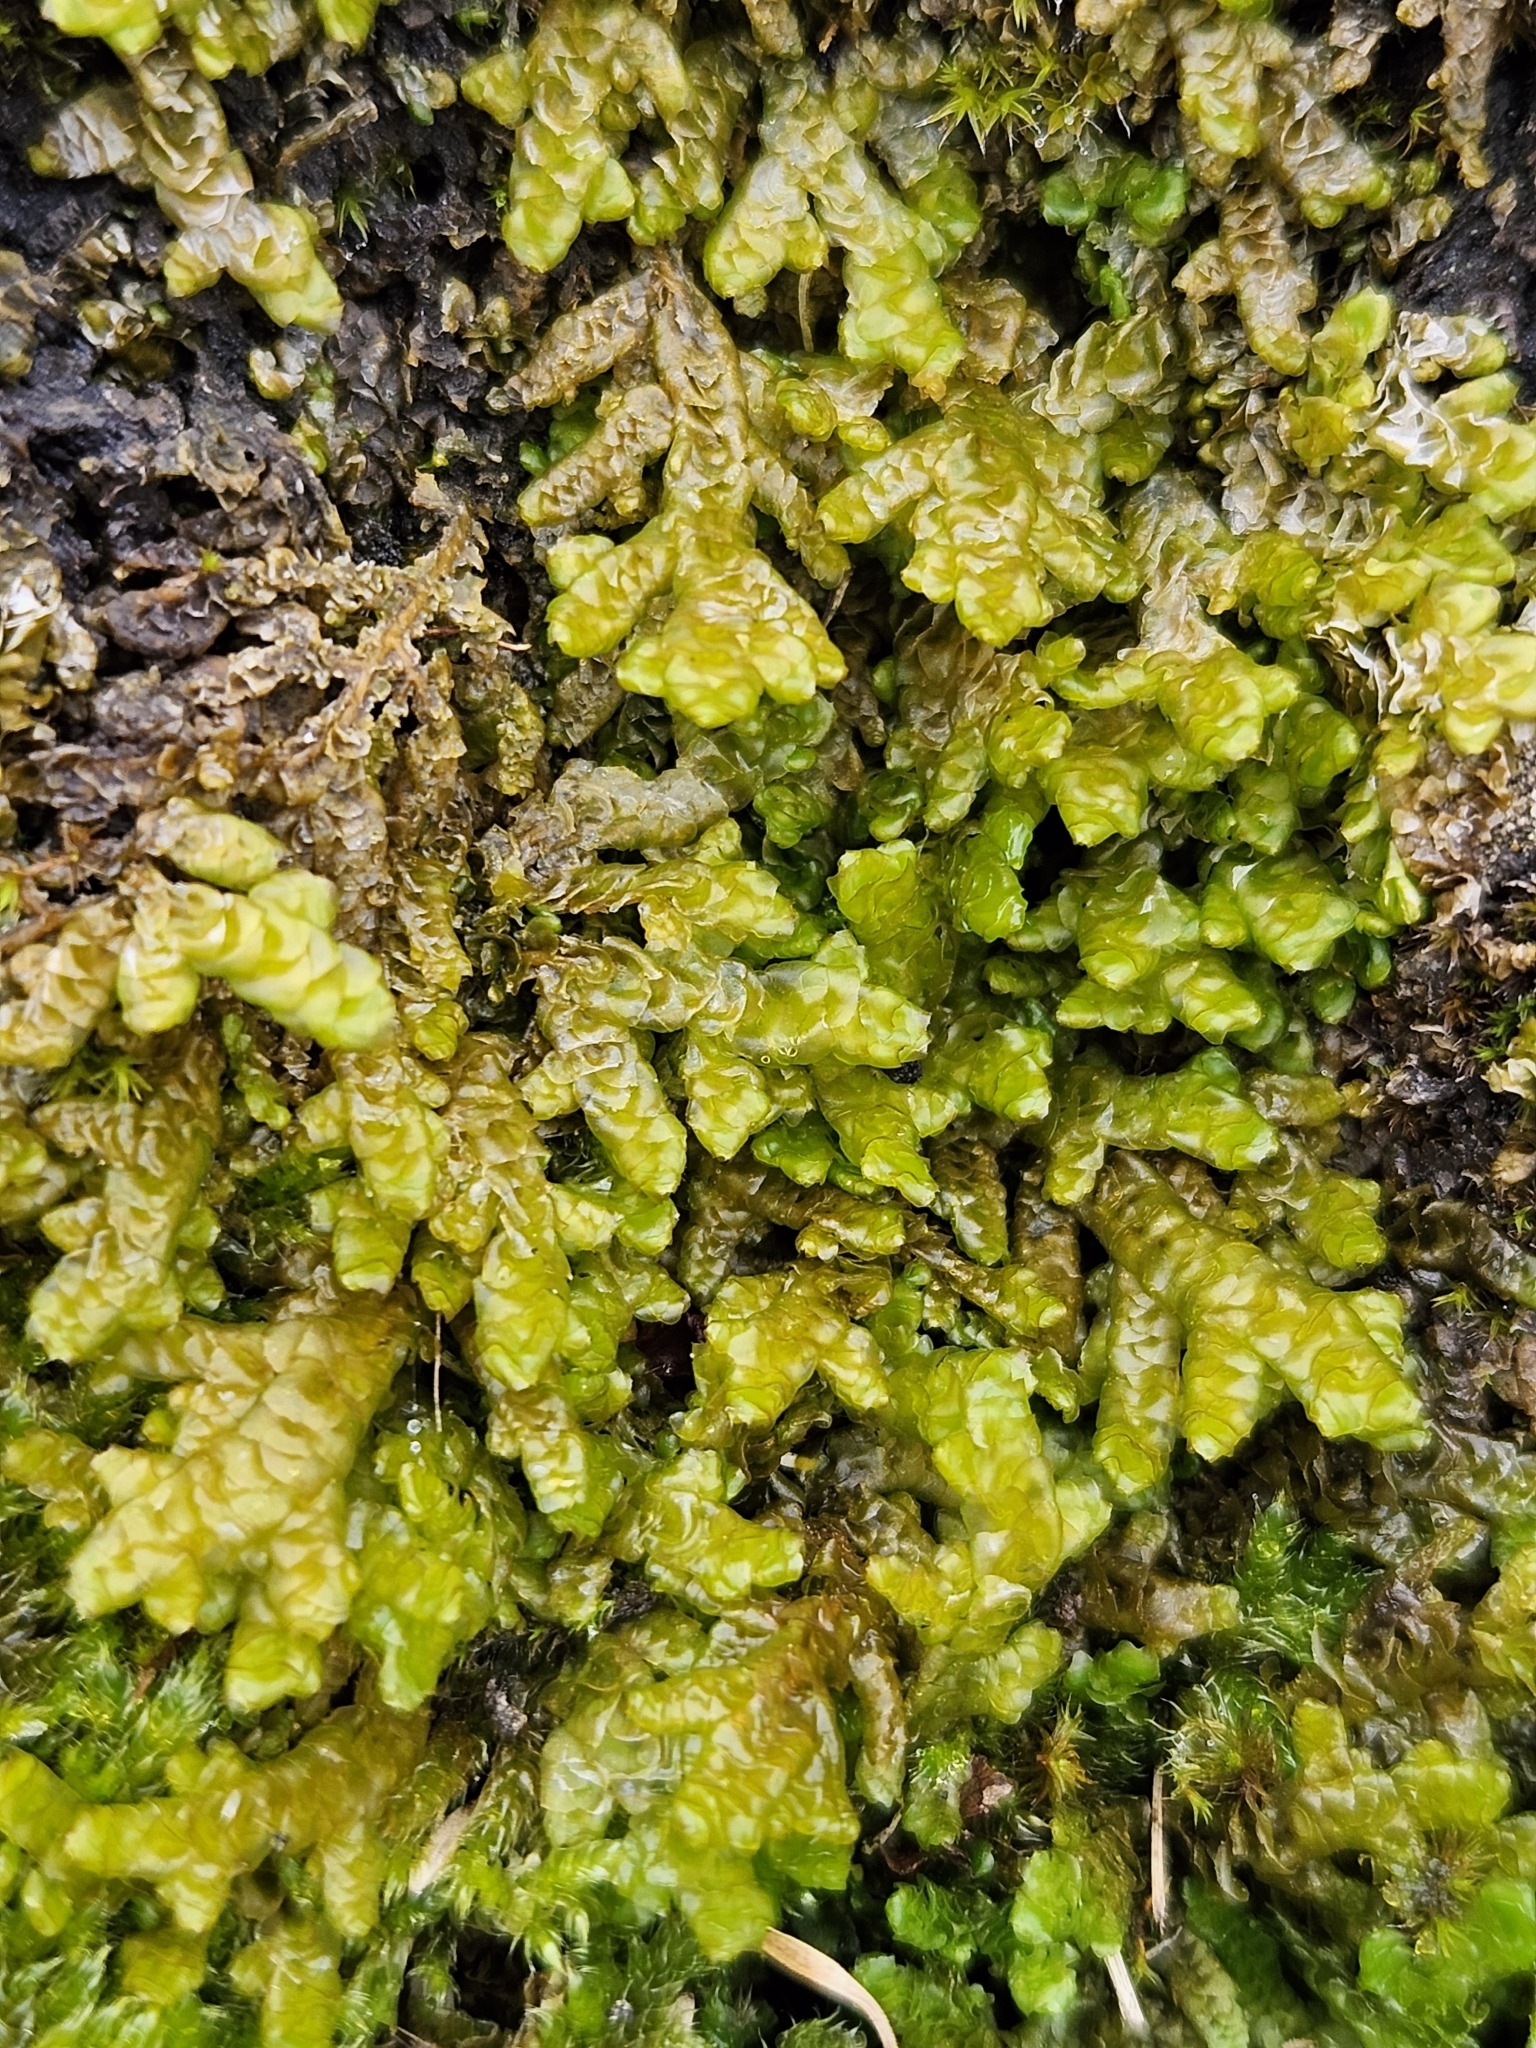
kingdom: Plantae
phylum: Marchantiophyta
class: Jungermanniopsida
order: Porellales
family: Porellaceae
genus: Porella
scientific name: Porella platyphylla
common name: Wall scalewort
